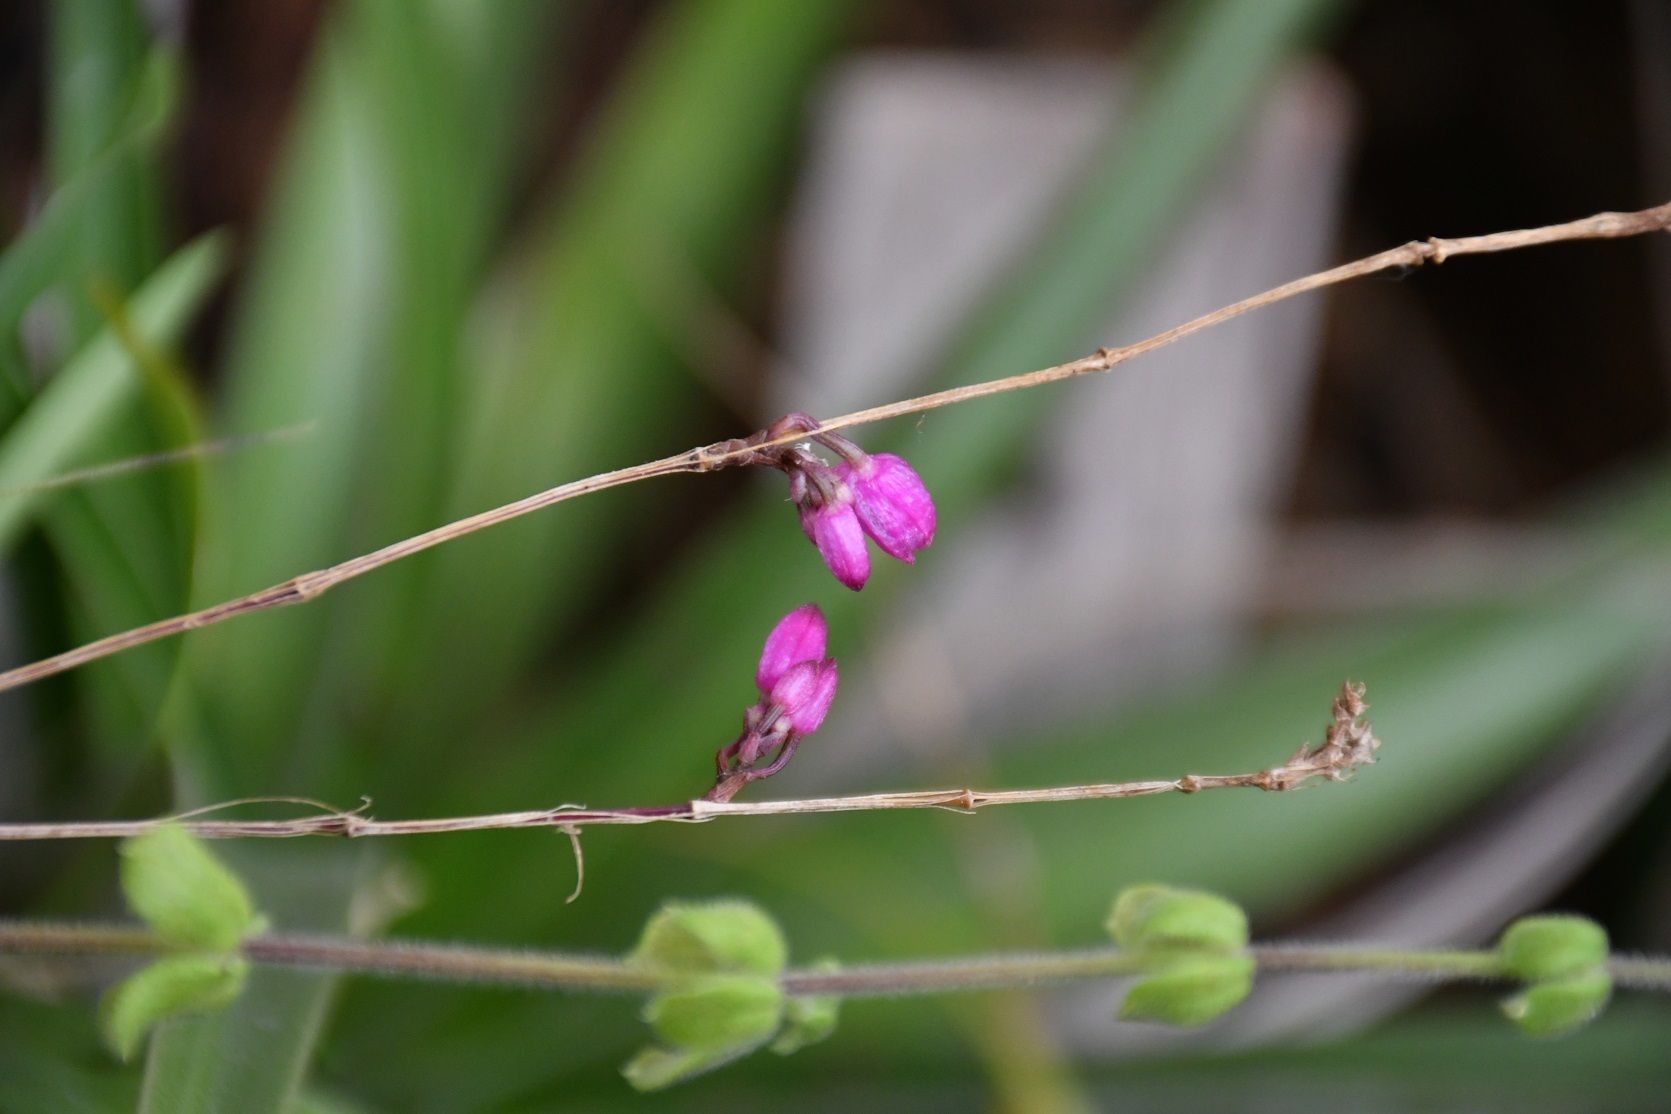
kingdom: Plantae
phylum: Tracheophyta
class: Liliopsida
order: Asparagales
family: Orchidaceae
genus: Domingoa
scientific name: Domingoa purpurea
